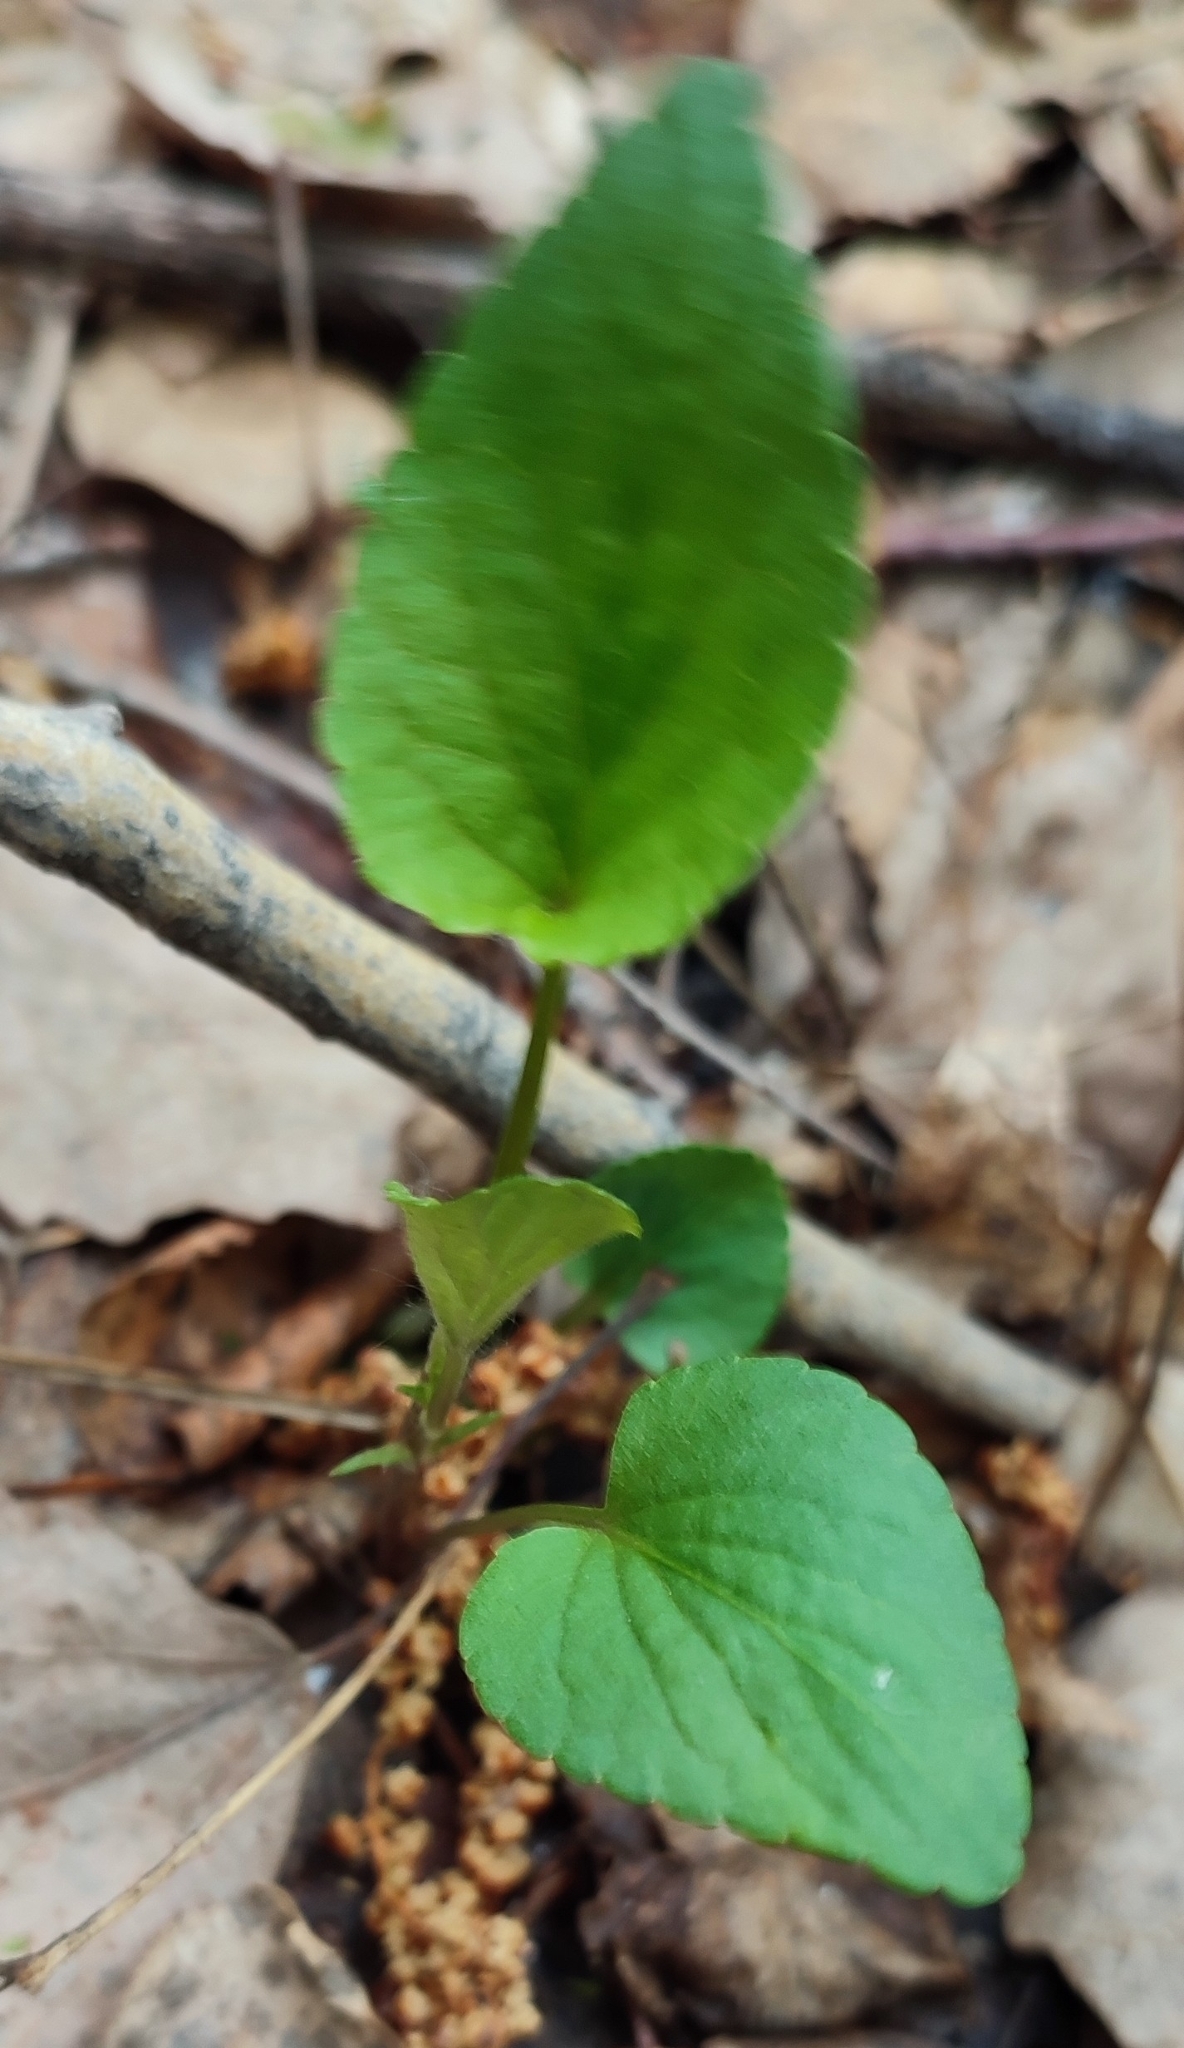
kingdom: Plantae
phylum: Tracheophyta
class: Magnoliopsida
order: Malpighiales
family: Violaceae
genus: Viola
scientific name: Viola
